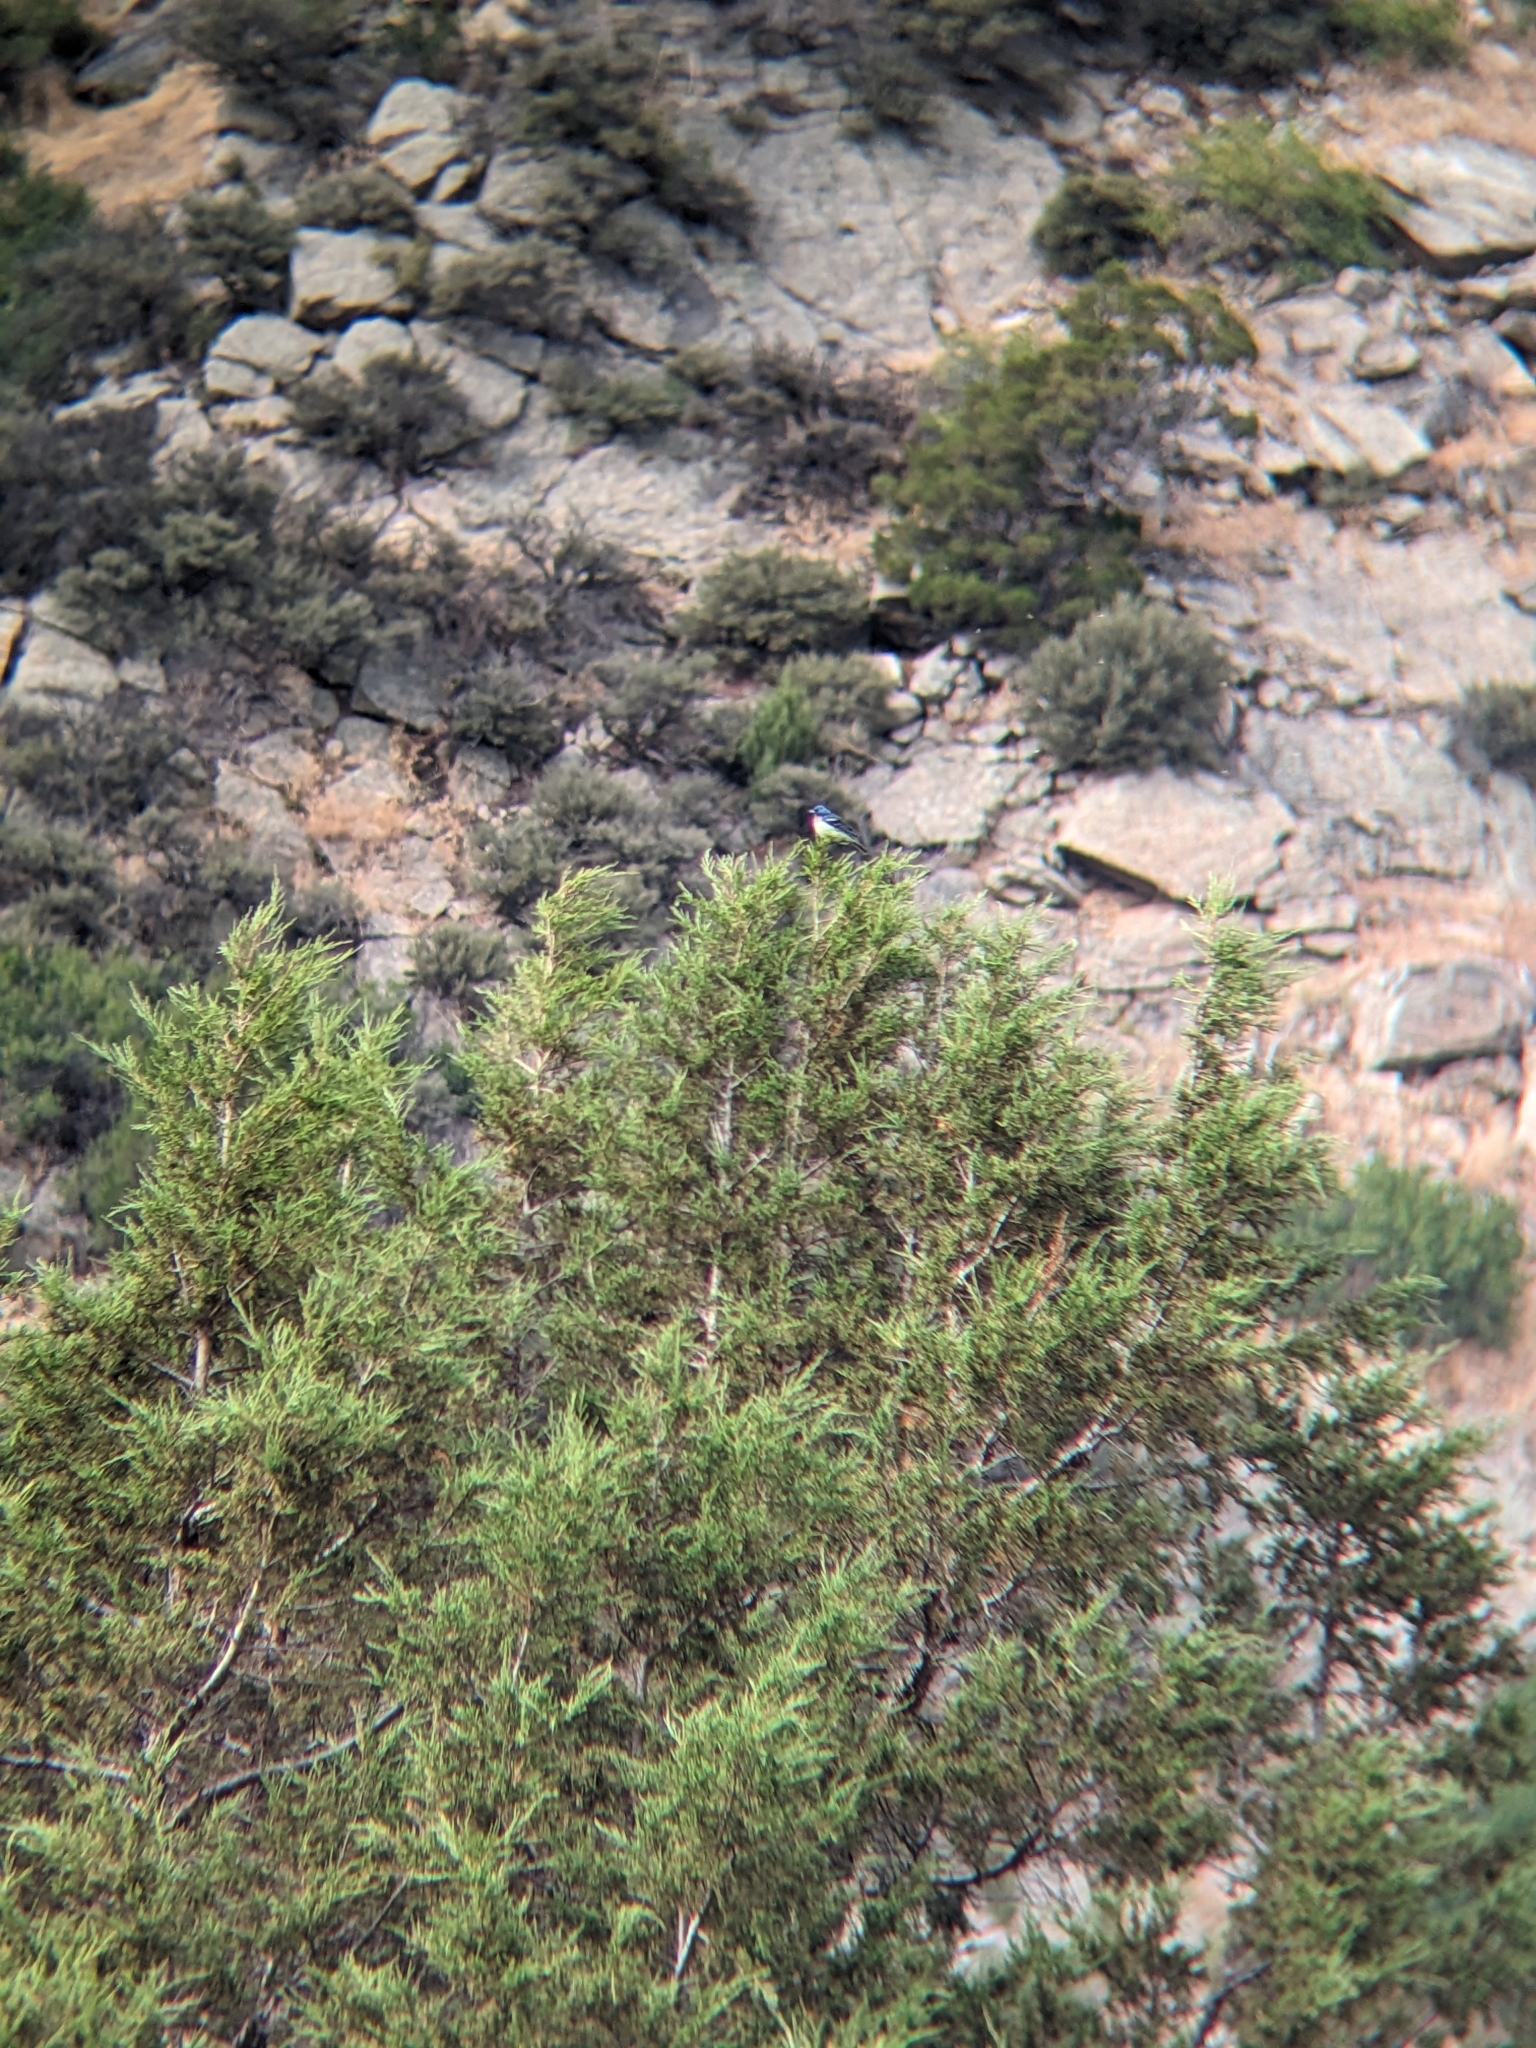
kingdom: Animalia
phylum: Chordata
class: Aves
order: Passeriformes
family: Cardinalidae
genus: Passerina
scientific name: Passerina amoena
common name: Lazuli bunting
